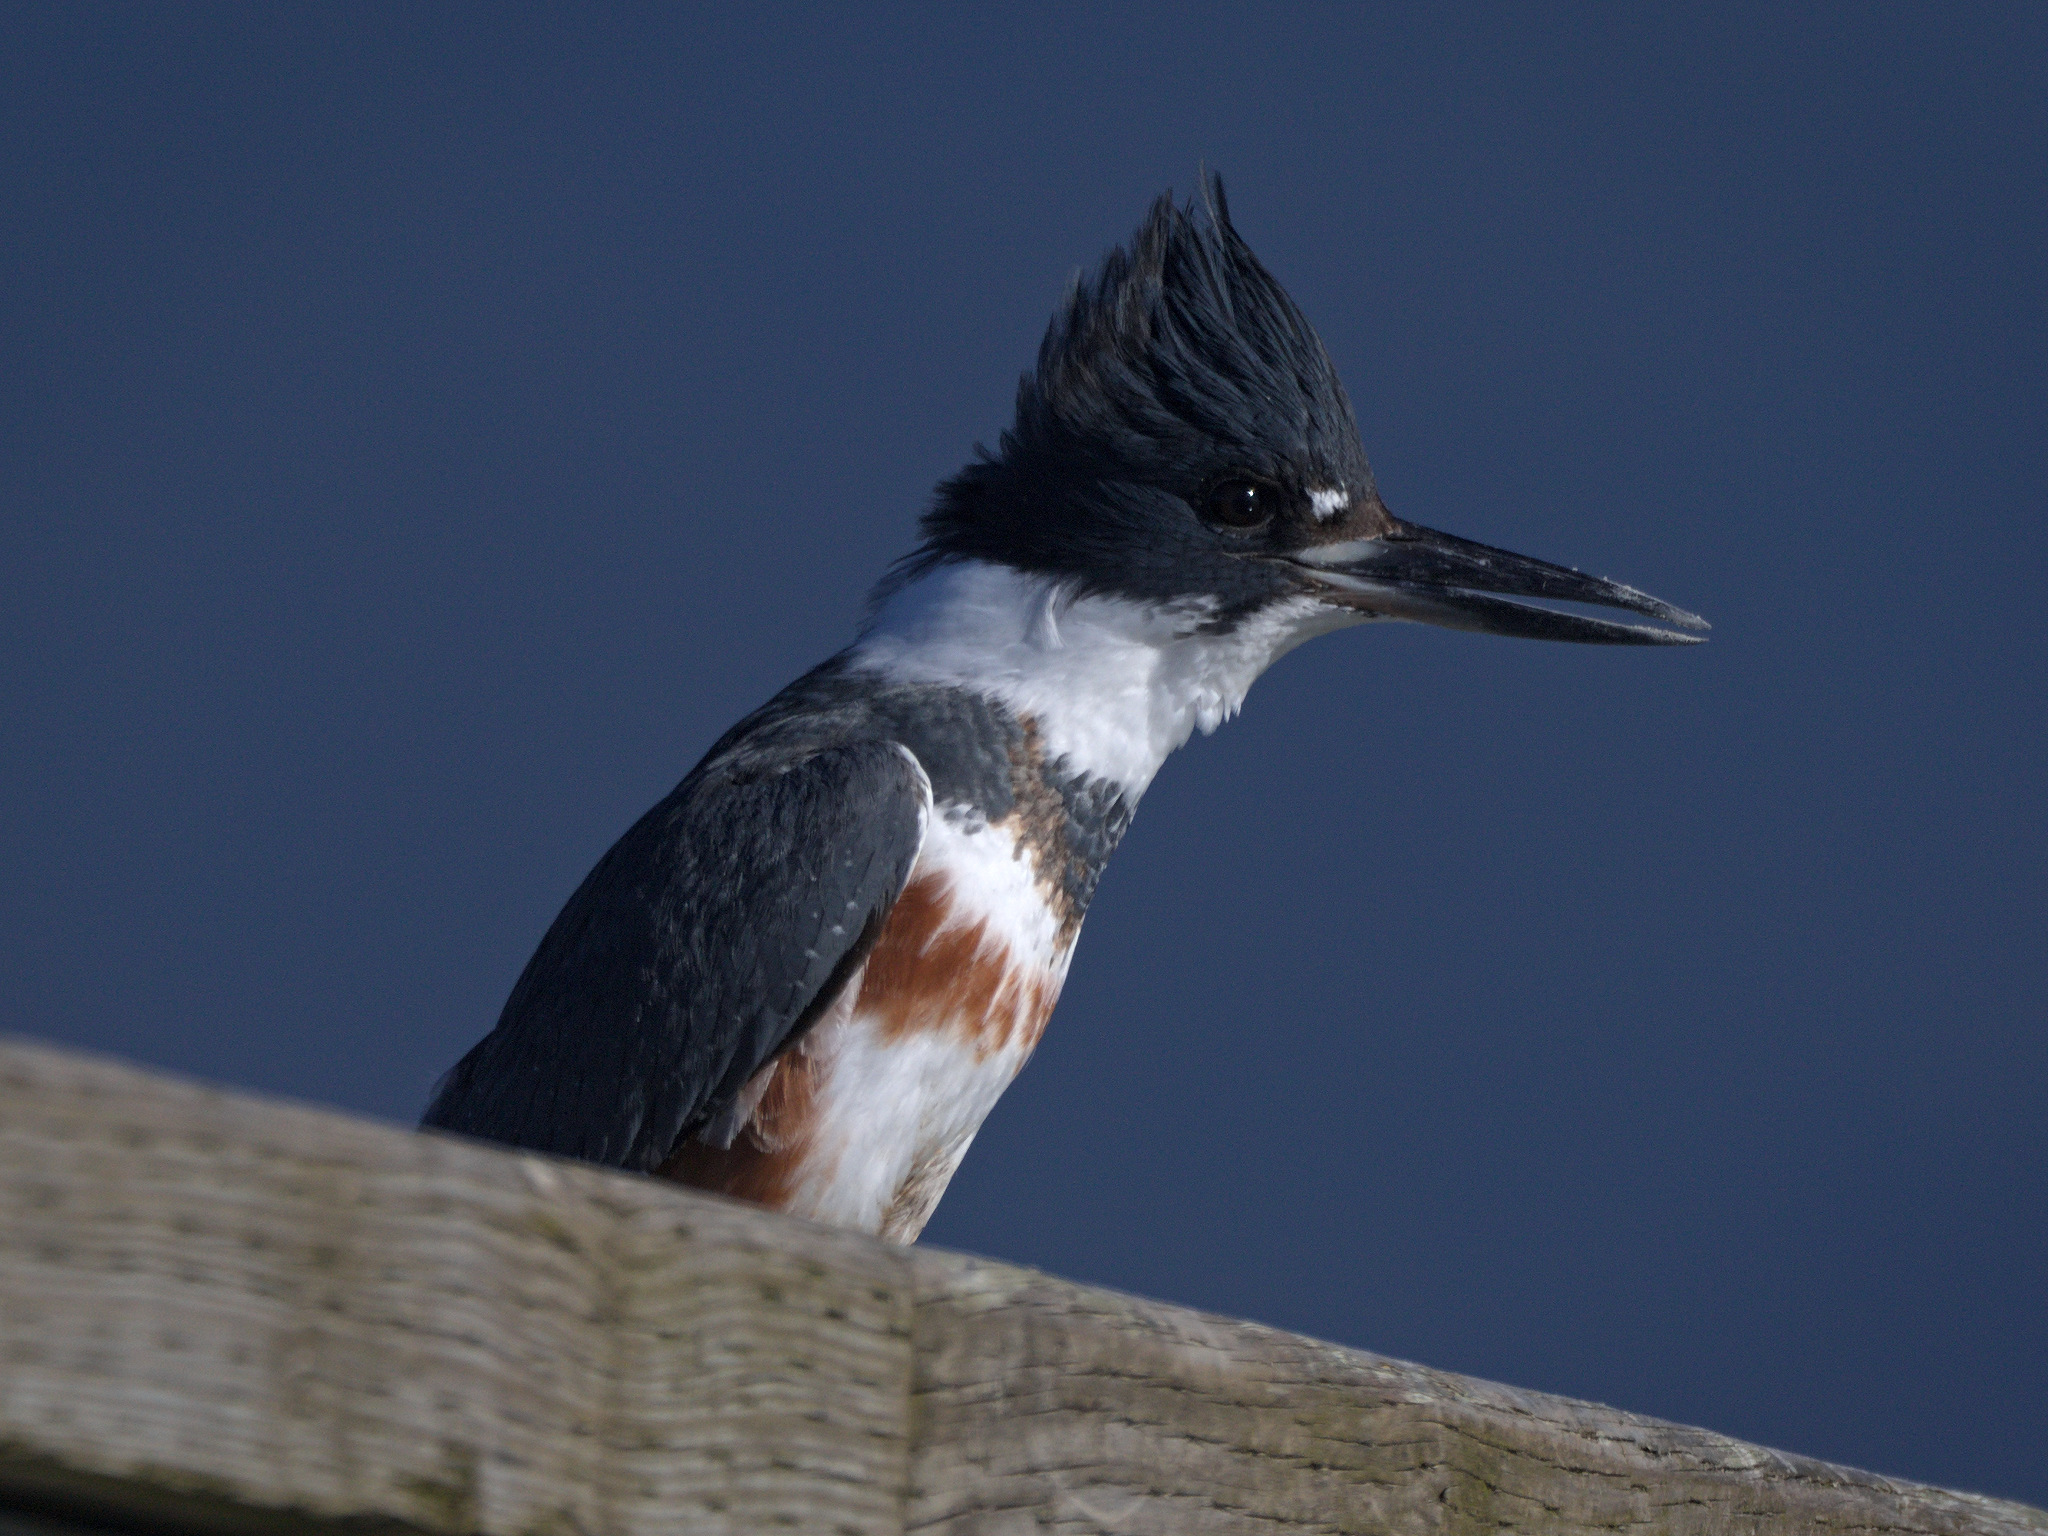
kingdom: Animalia
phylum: Chordata
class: Aves
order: Coraciiformes
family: Alcedinidae
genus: Megaceryle
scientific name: Megaceryle alcyon
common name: Belted kingfisher
